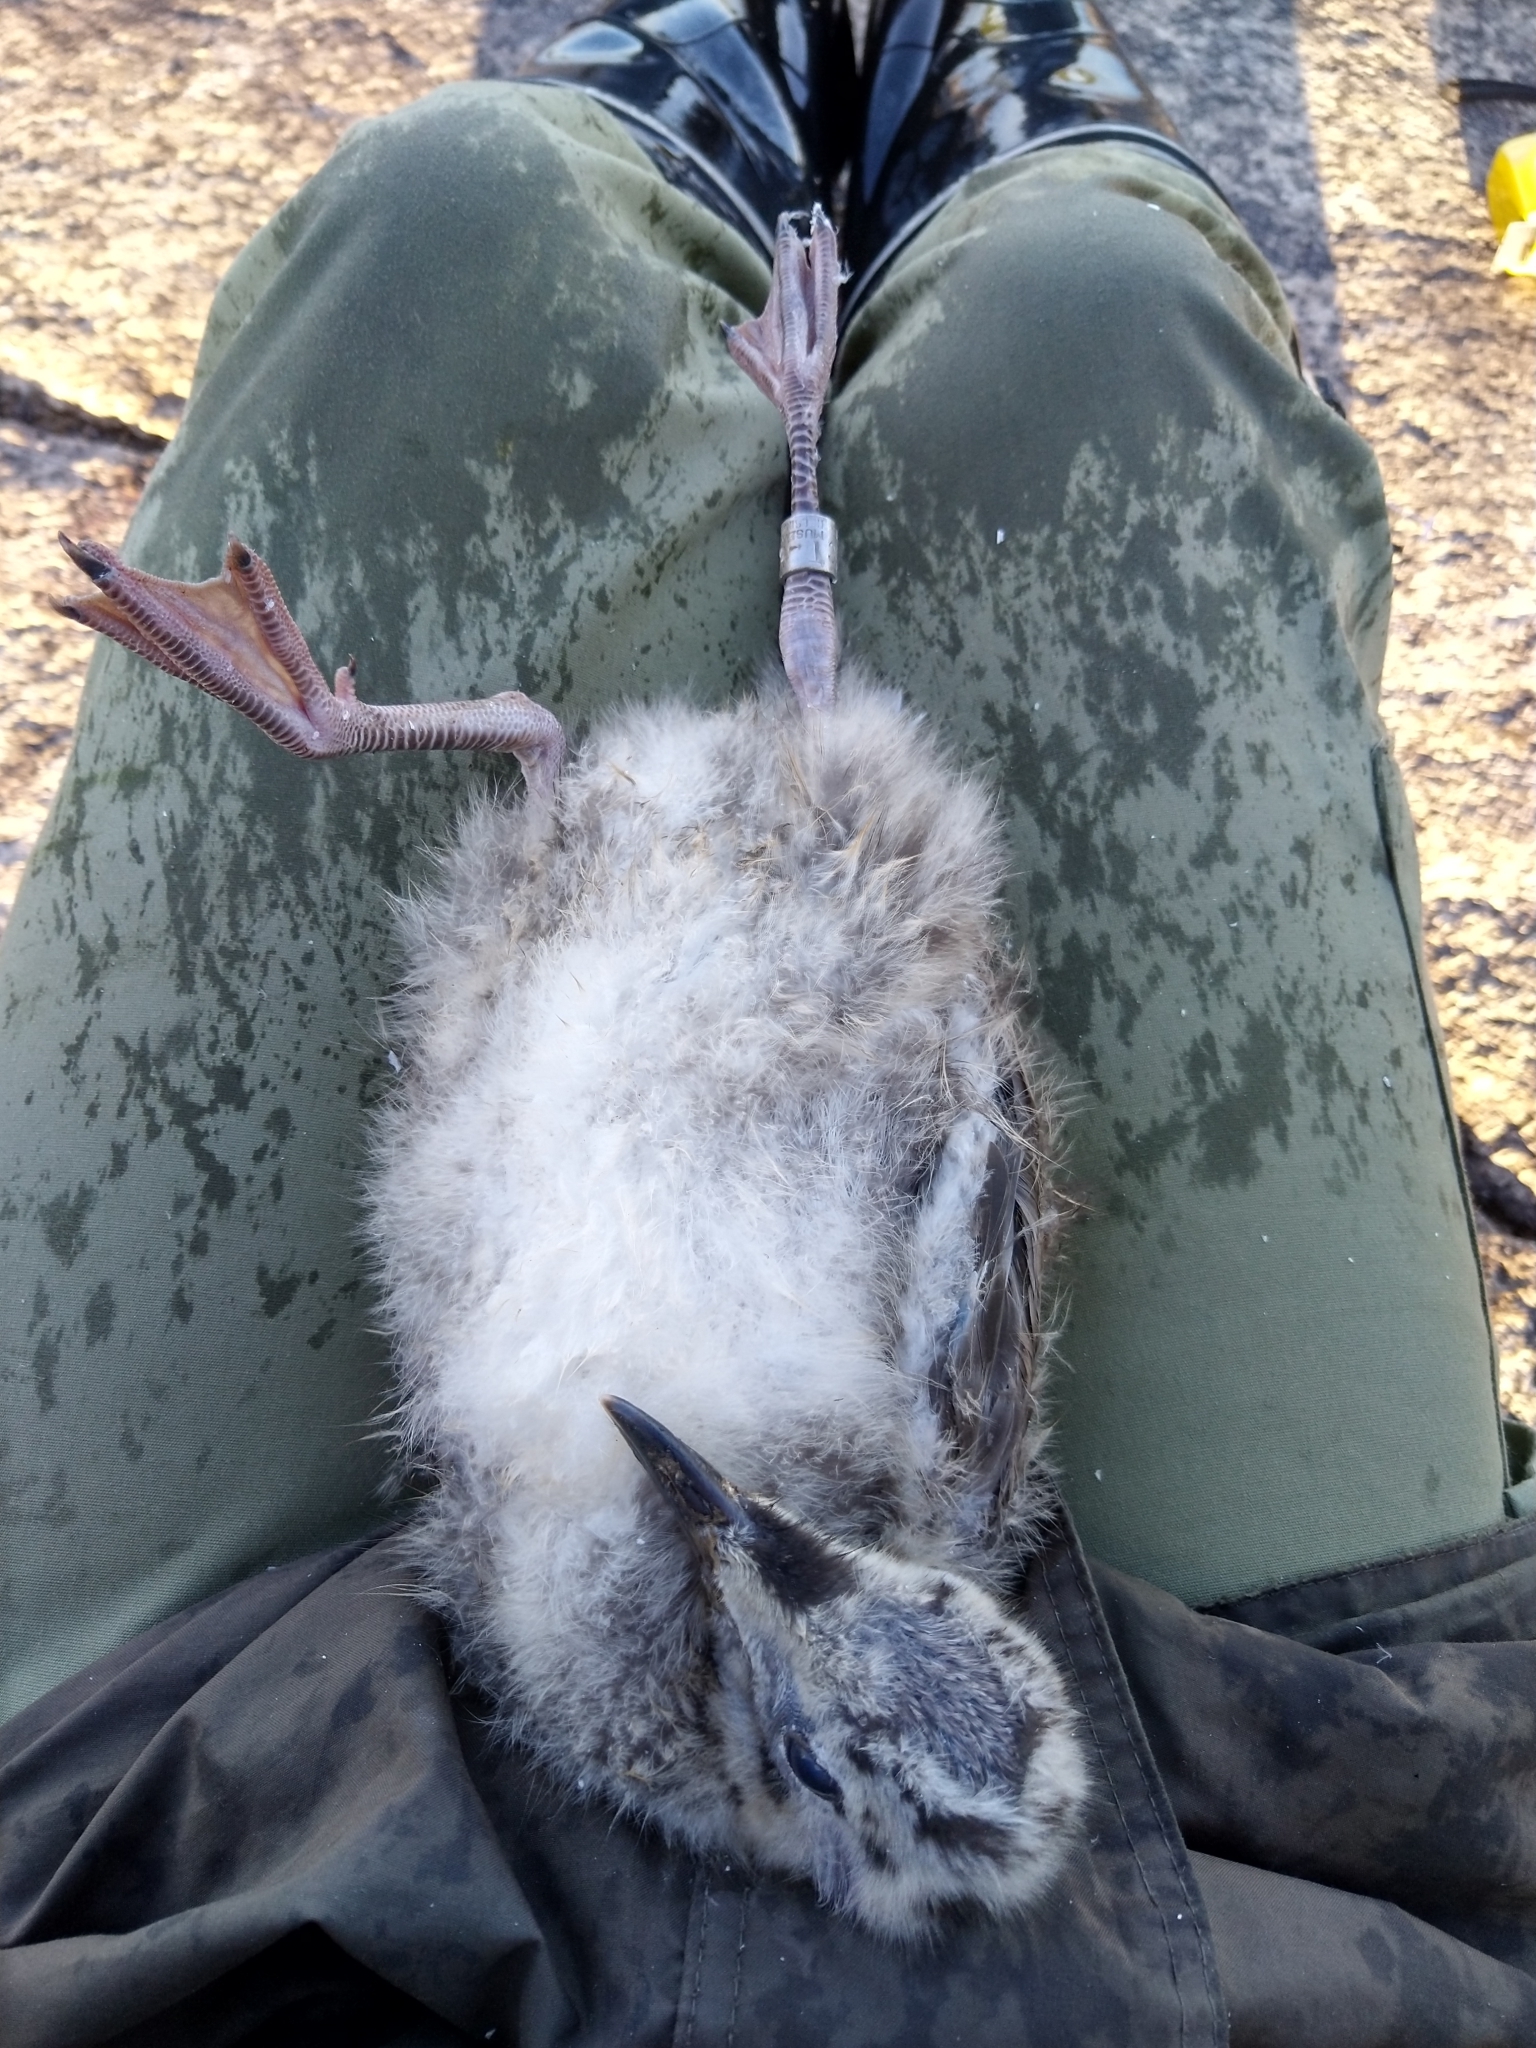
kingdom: Animalia
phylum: Chordata
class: Aves
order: Charadriiformes
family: Laridae
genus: Larus
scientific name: Larus canus
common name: Mew gull
